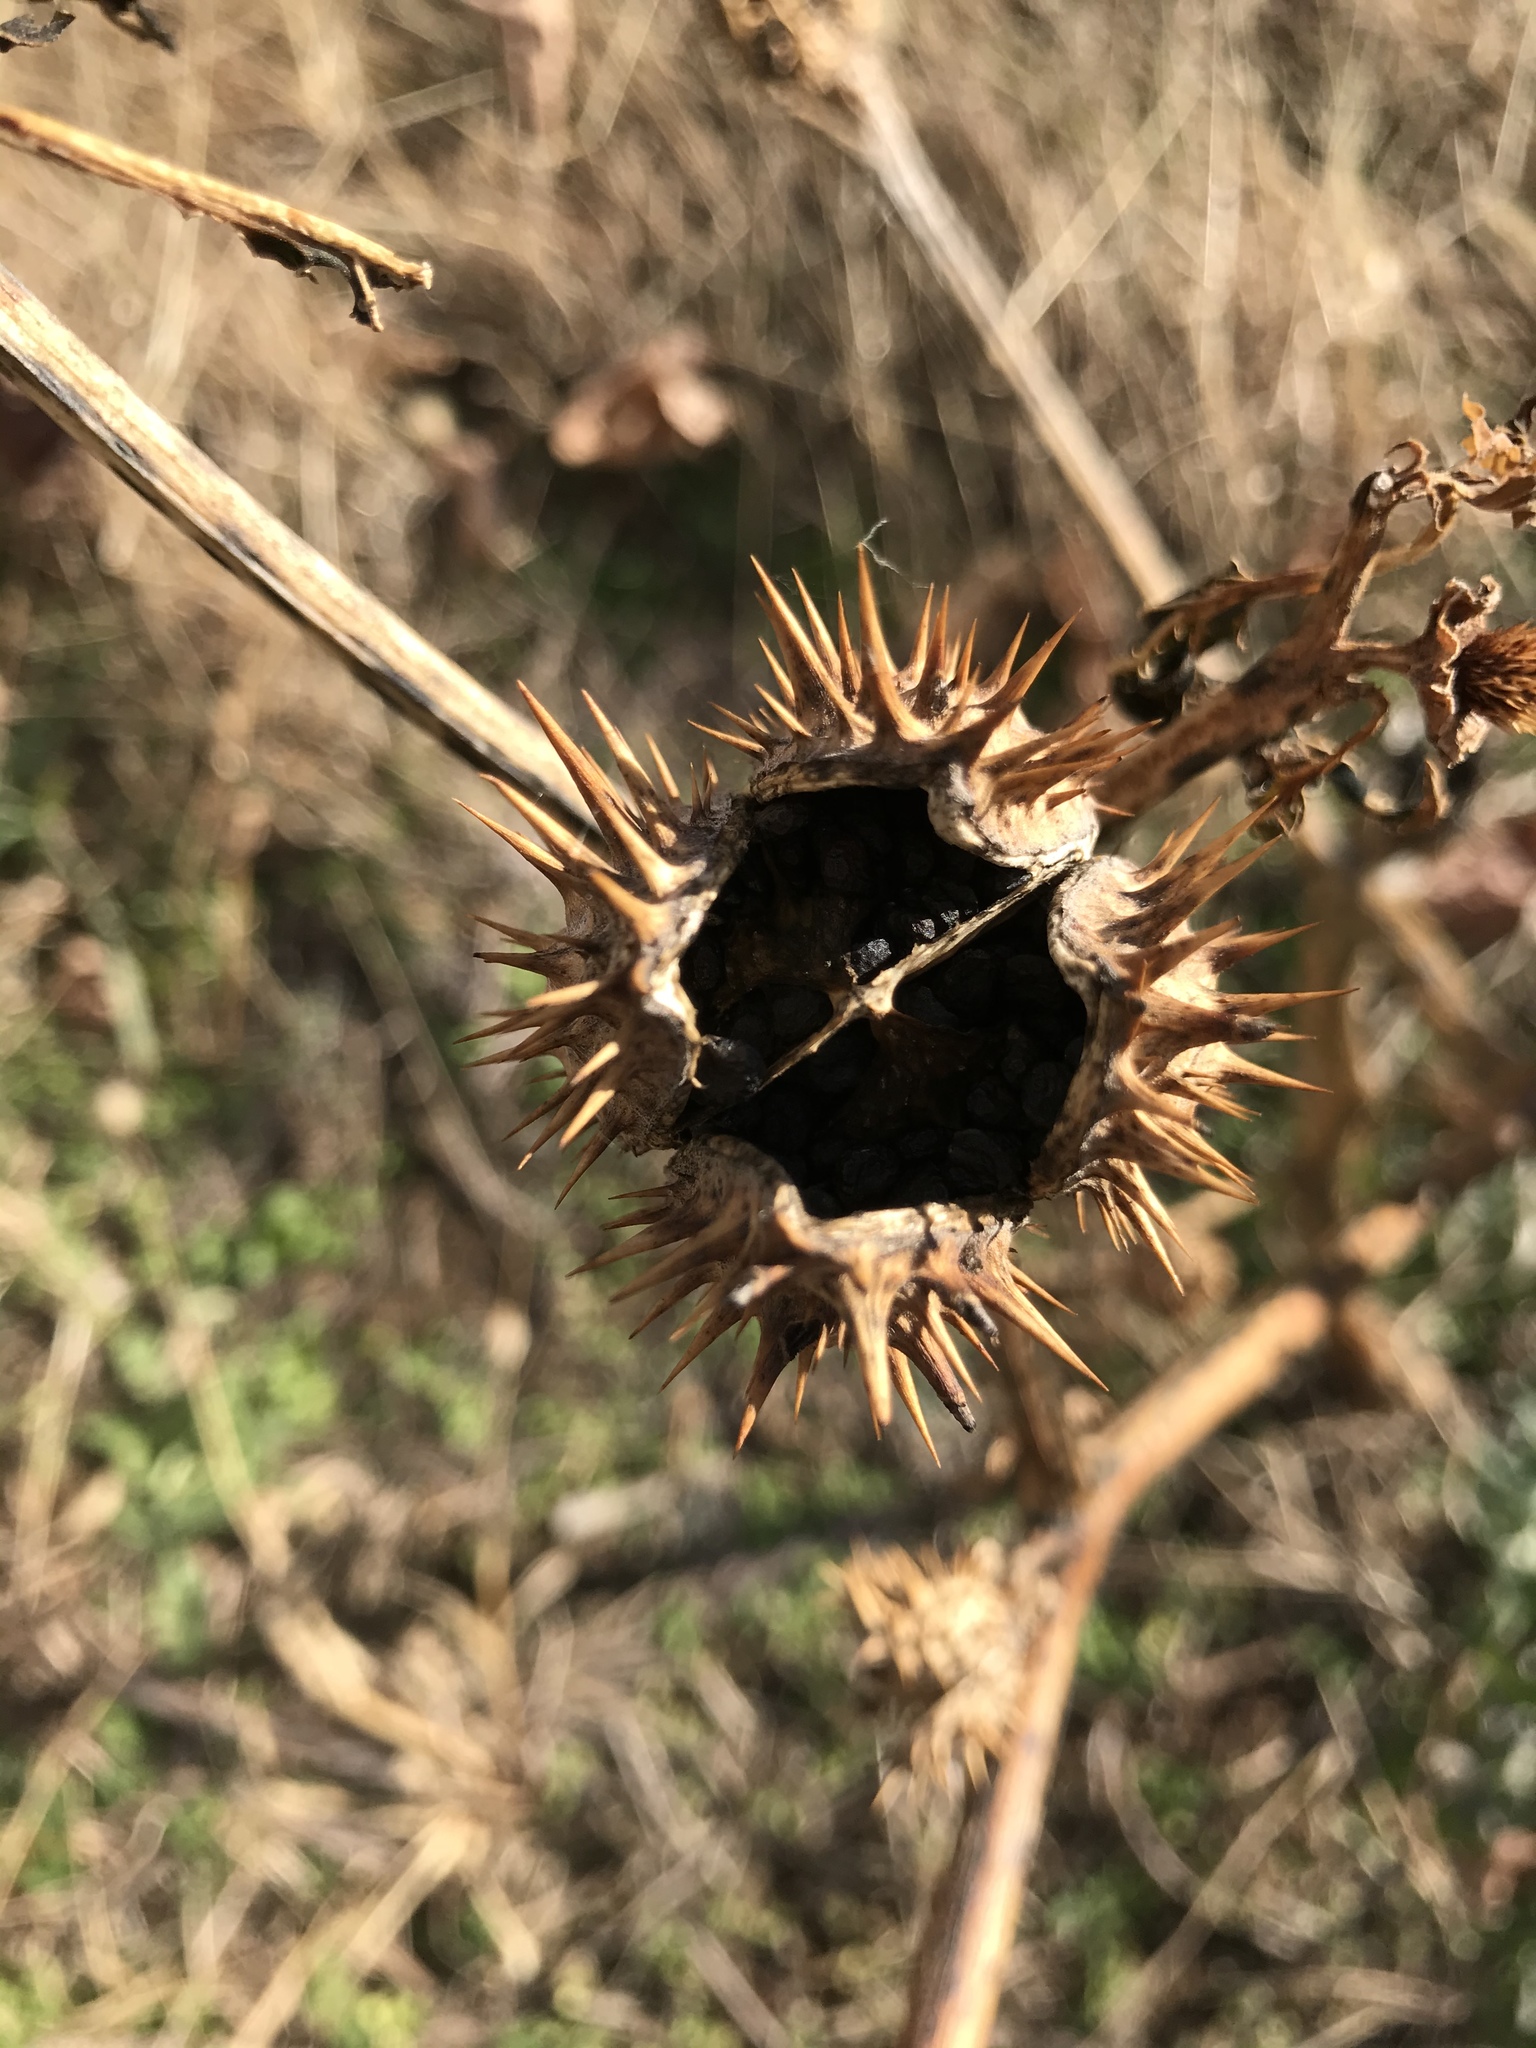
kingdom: Plantae
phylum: Tracheophyta
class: Magnoliopsida
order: Solanales
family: Solanaceae
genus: Datura
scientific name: Datura stramonium
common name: Thorn-apple
